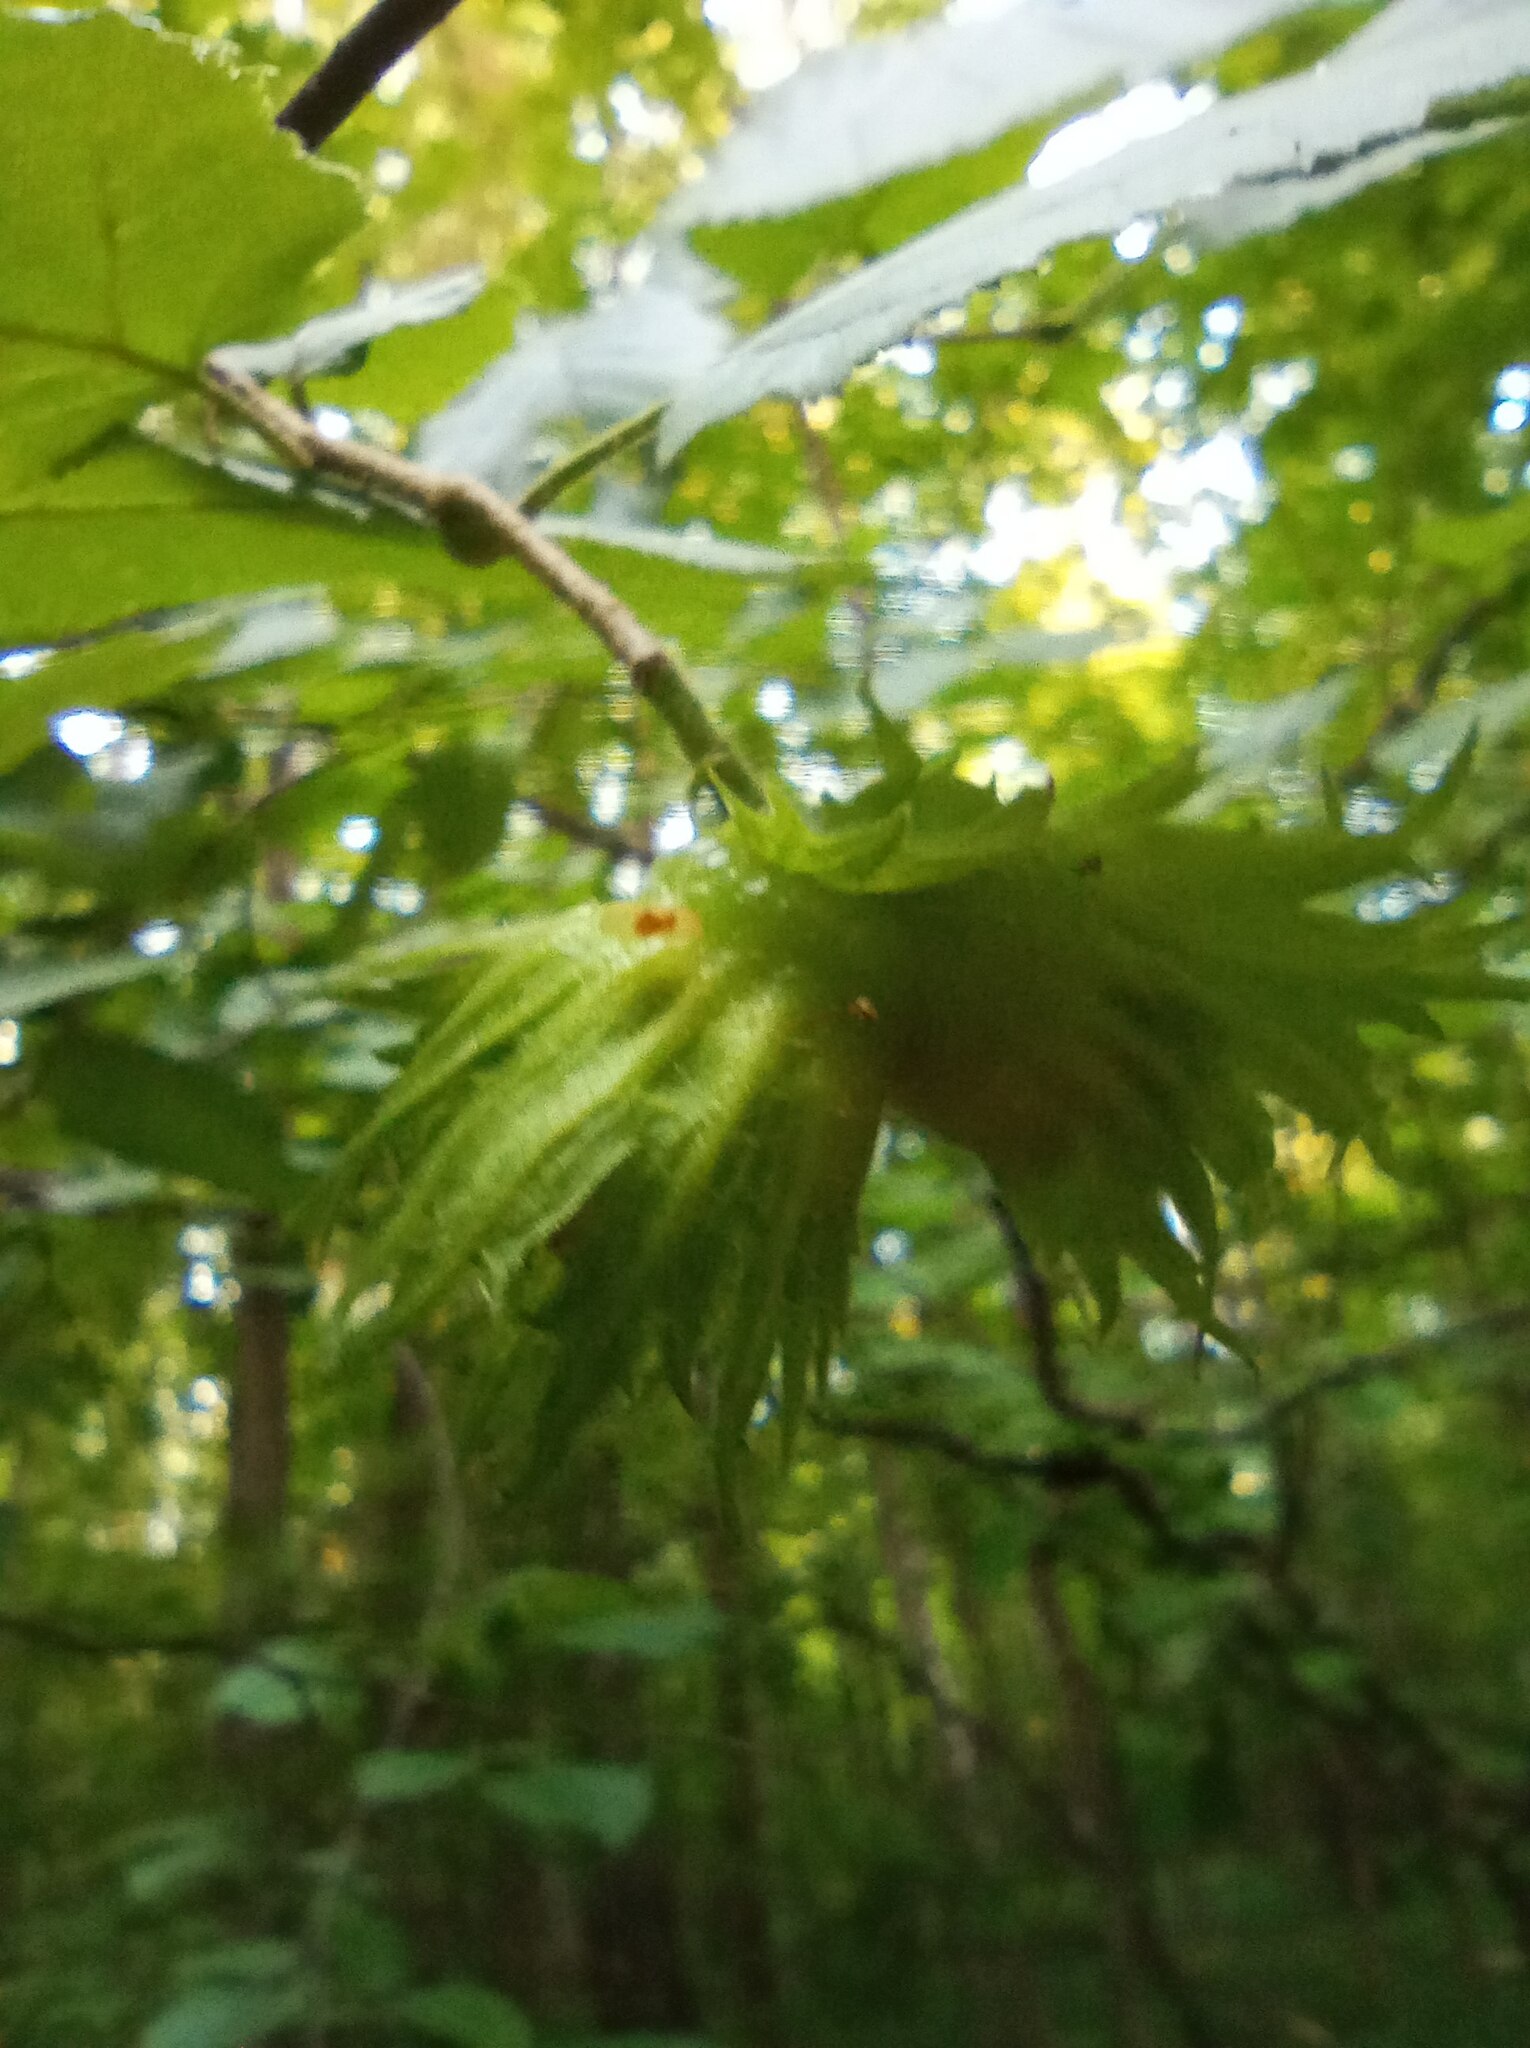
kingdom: Plantae
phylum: Tracheophyta
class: Magnoliopsida
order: Fagales
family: Betulaceae
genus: Corylus
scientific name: Corylus avellana
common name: European hazel
